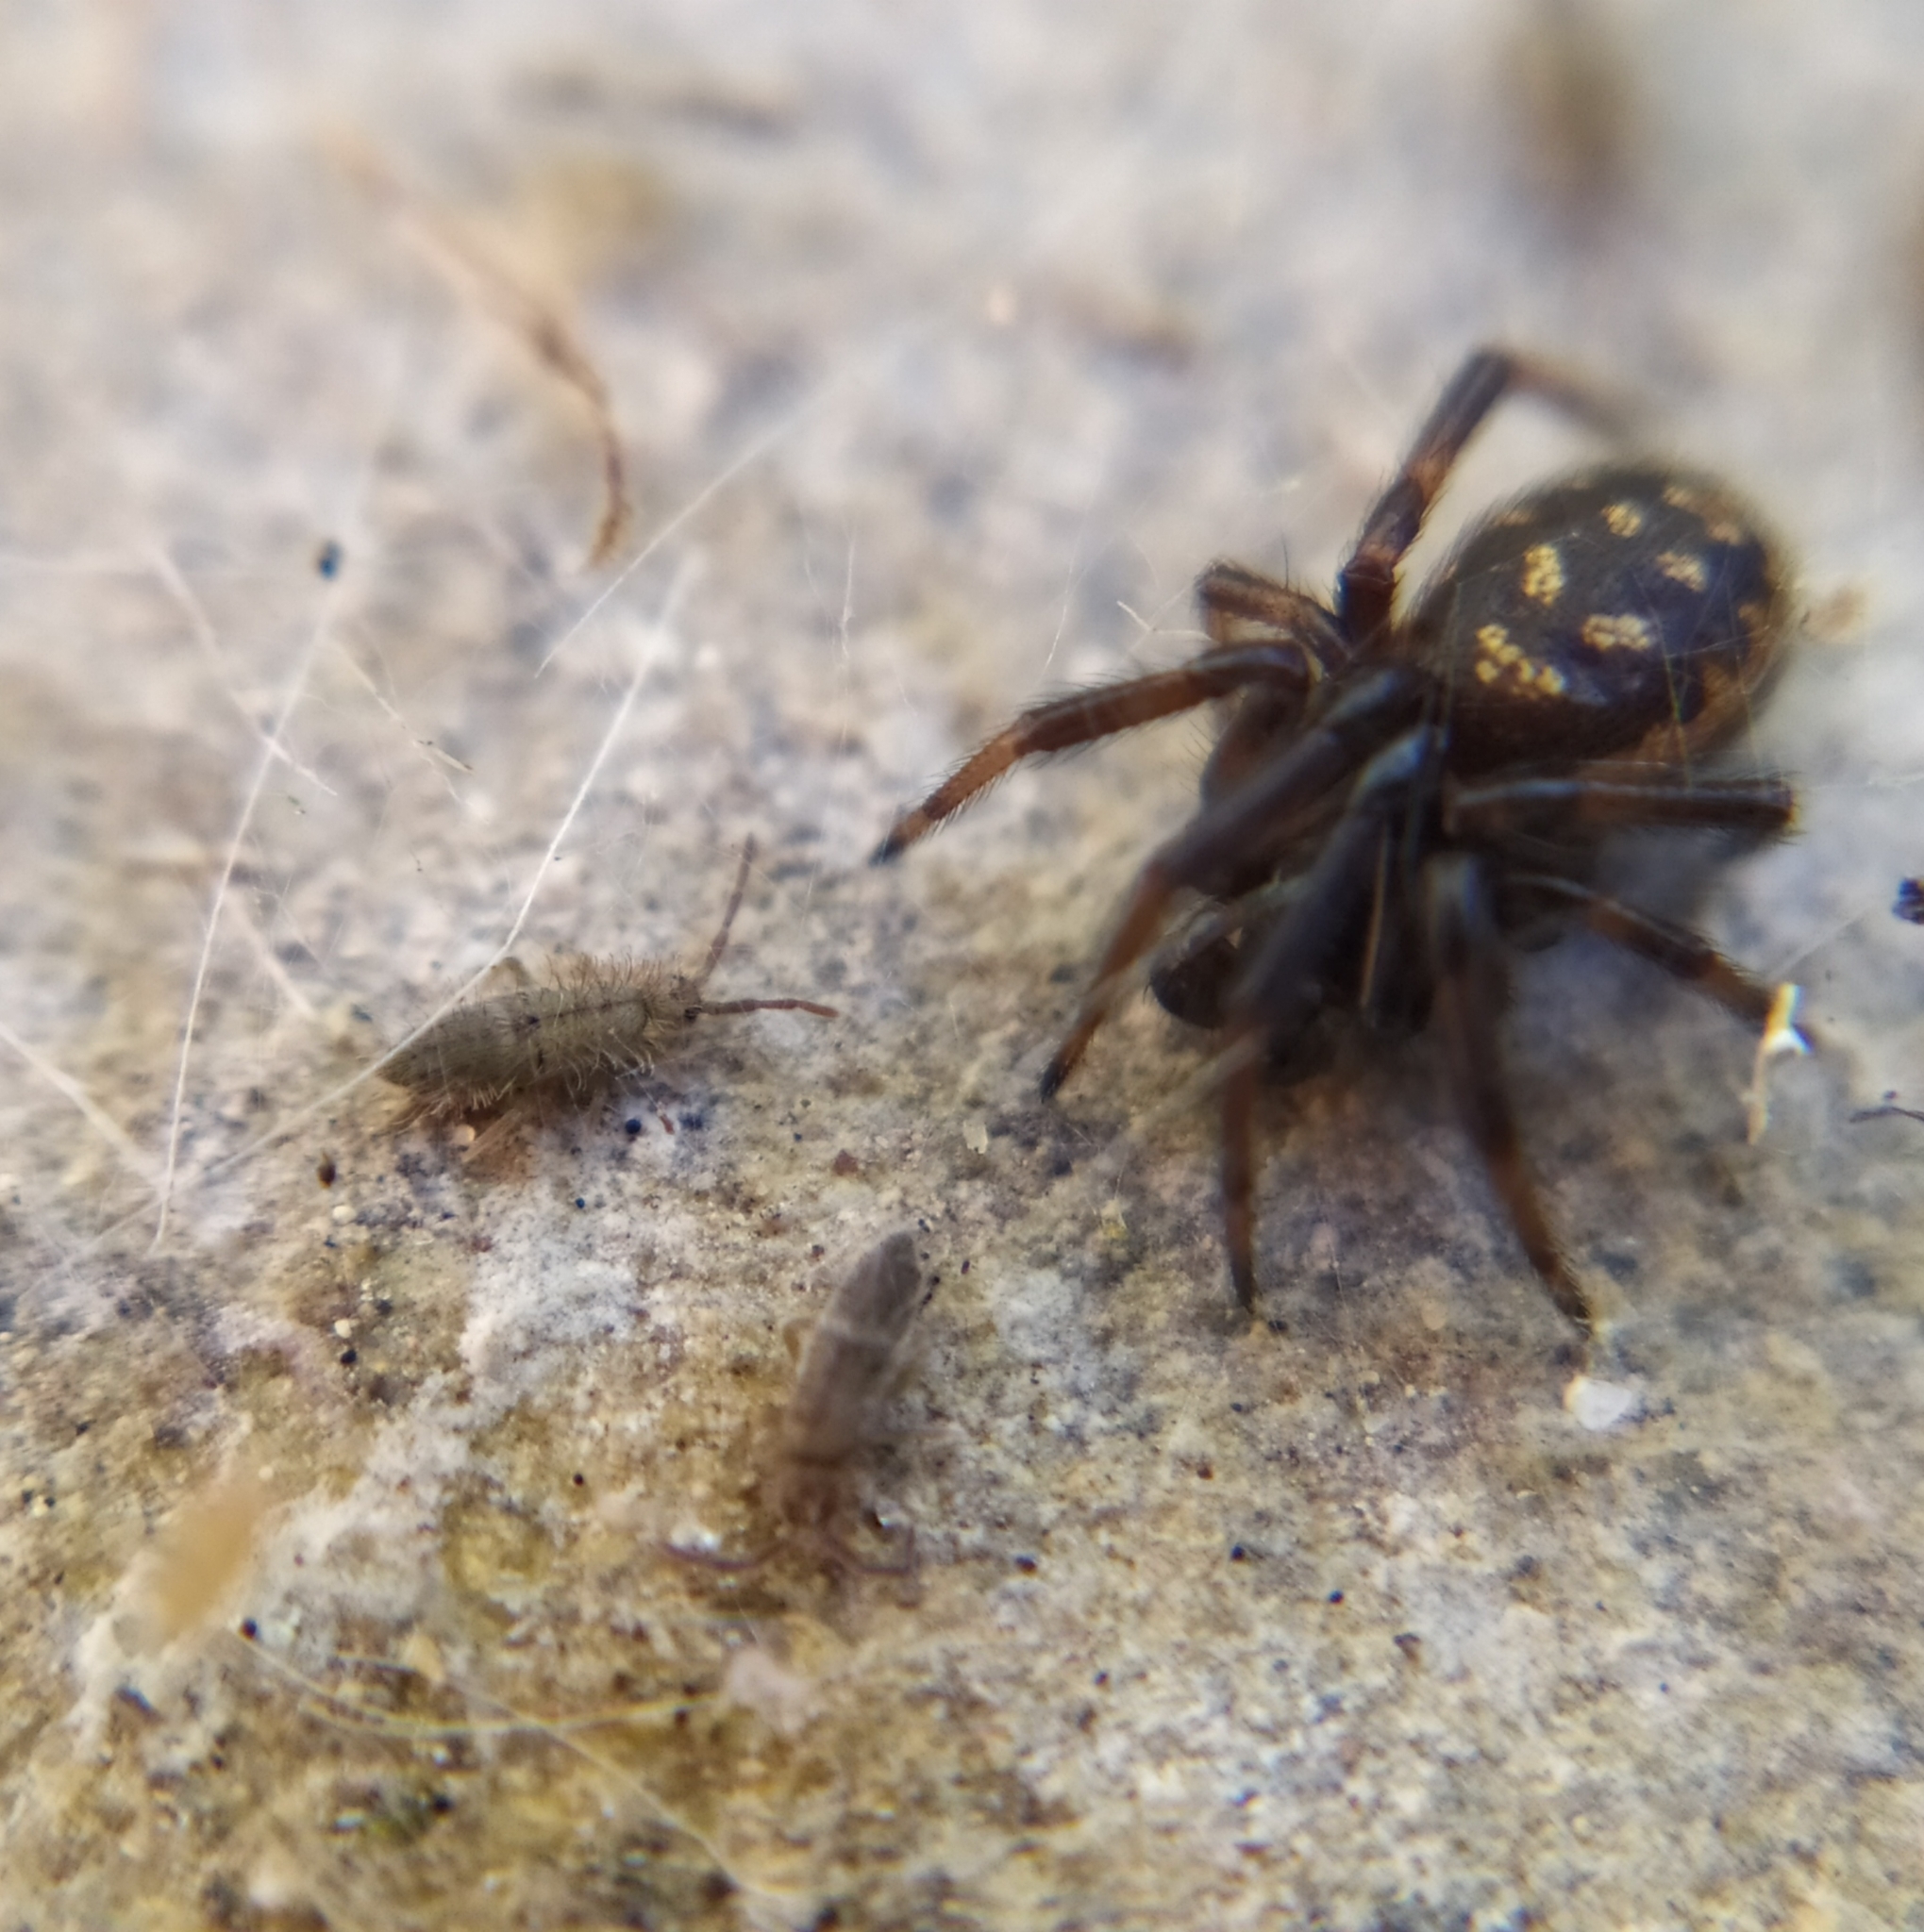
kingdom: Animalia
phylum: Arthropoda
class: Collembola
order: Entomobryomorpha
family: Isotomidae
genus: Isotomurus
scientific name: Isotomurus palustris
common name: Marsh springtail
